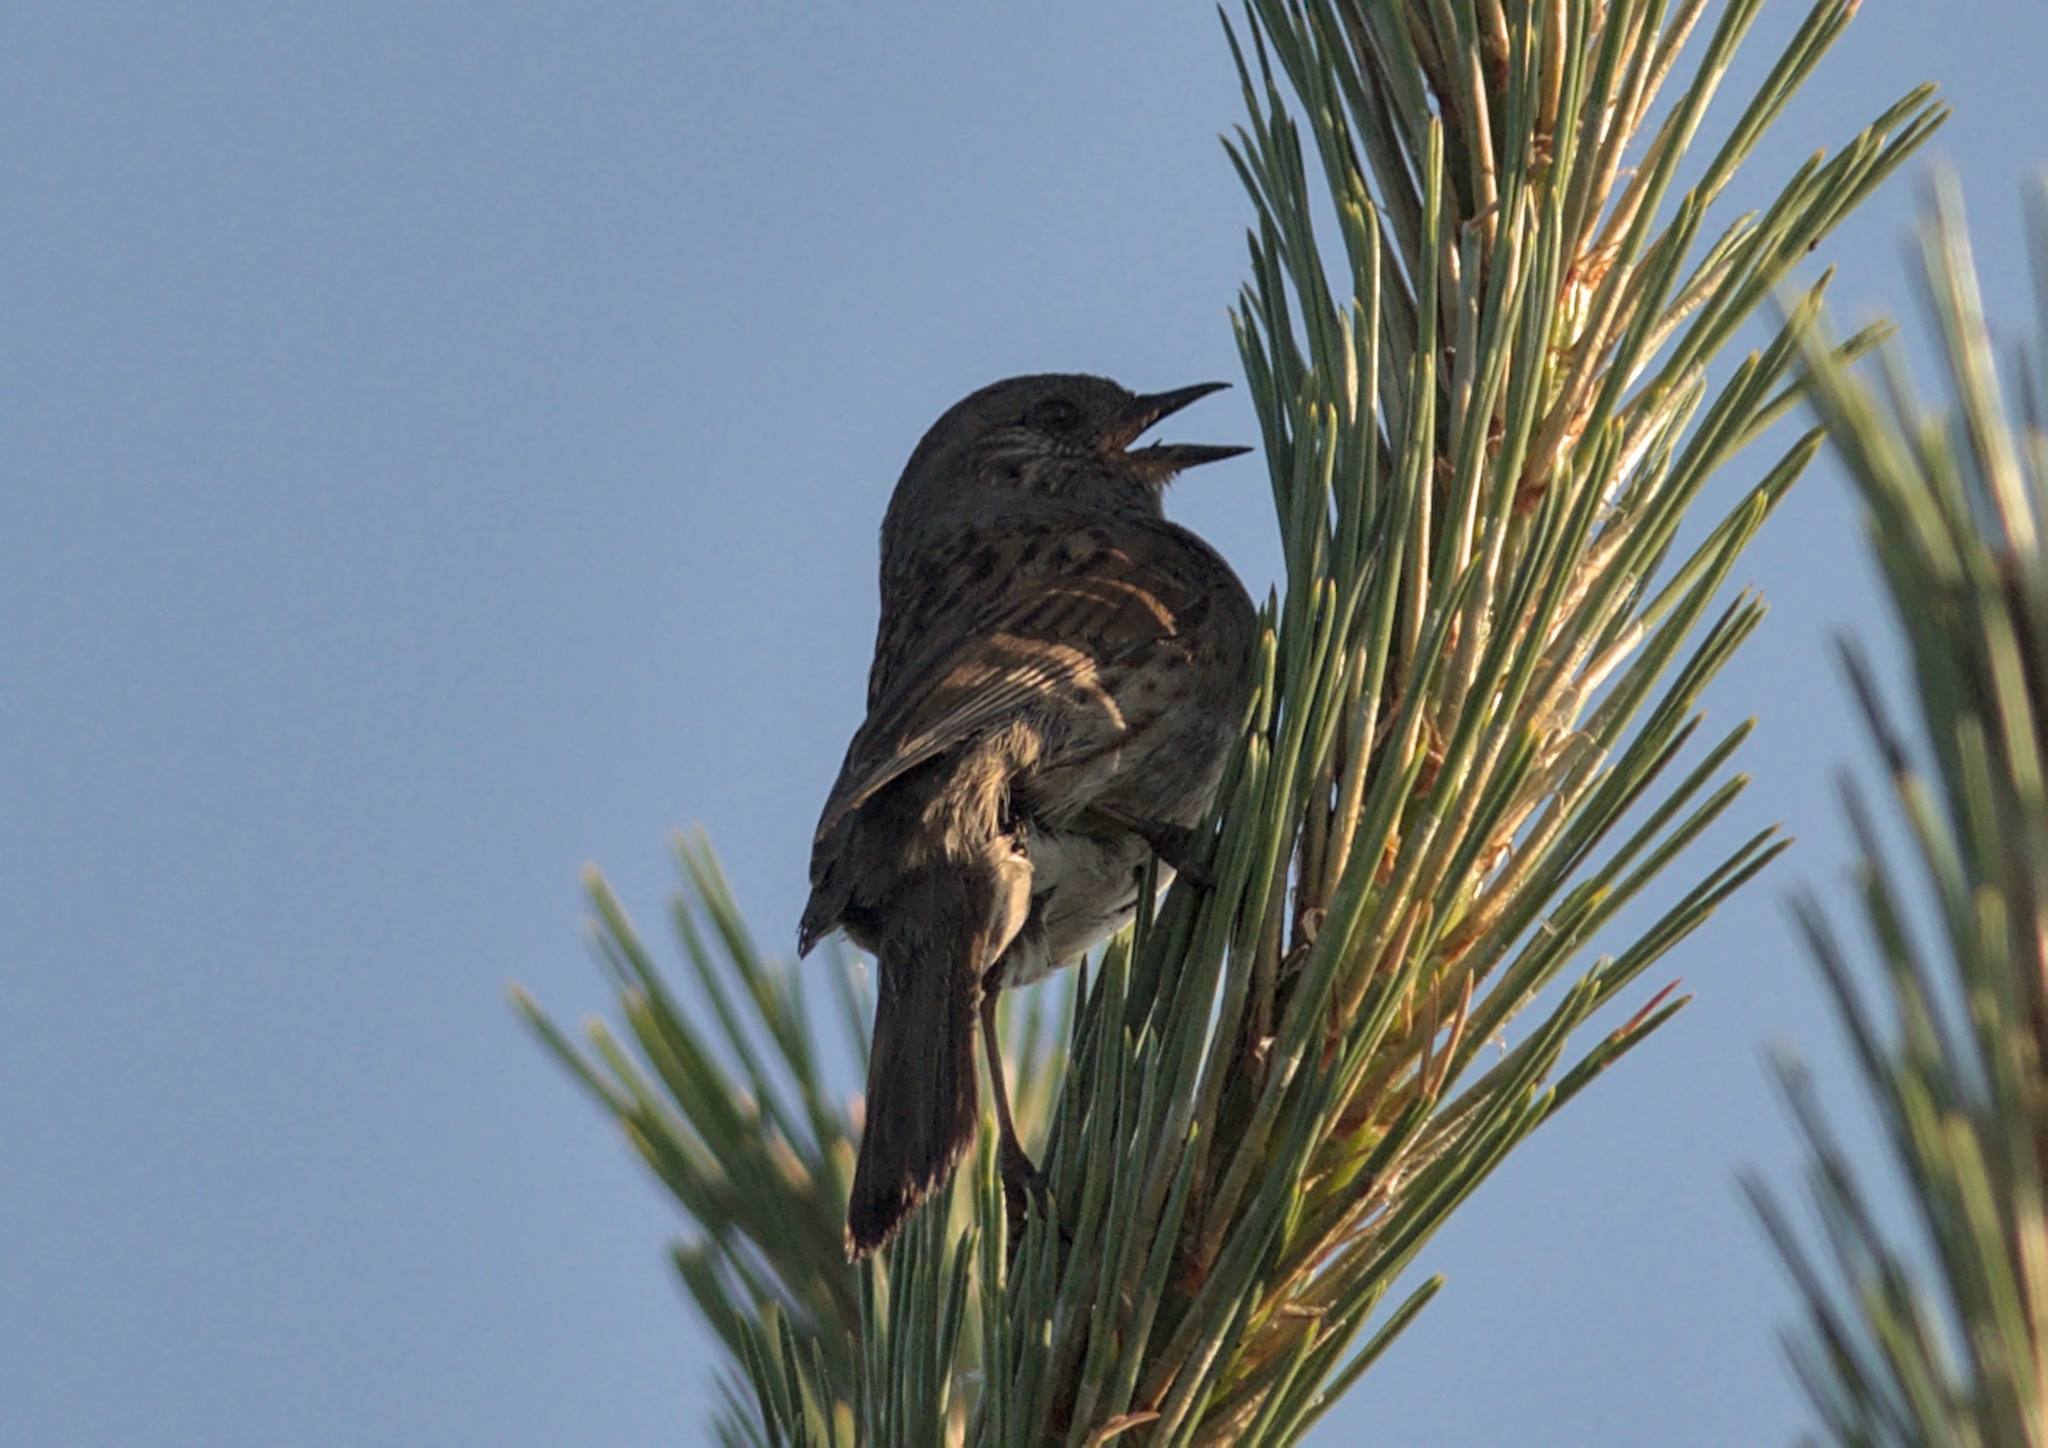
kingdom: Animalia
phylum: Chordata
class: Aves
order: Passeriformes
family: Prunellidae
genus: Prunella
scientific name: Prunella modularis
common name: Dunnock
